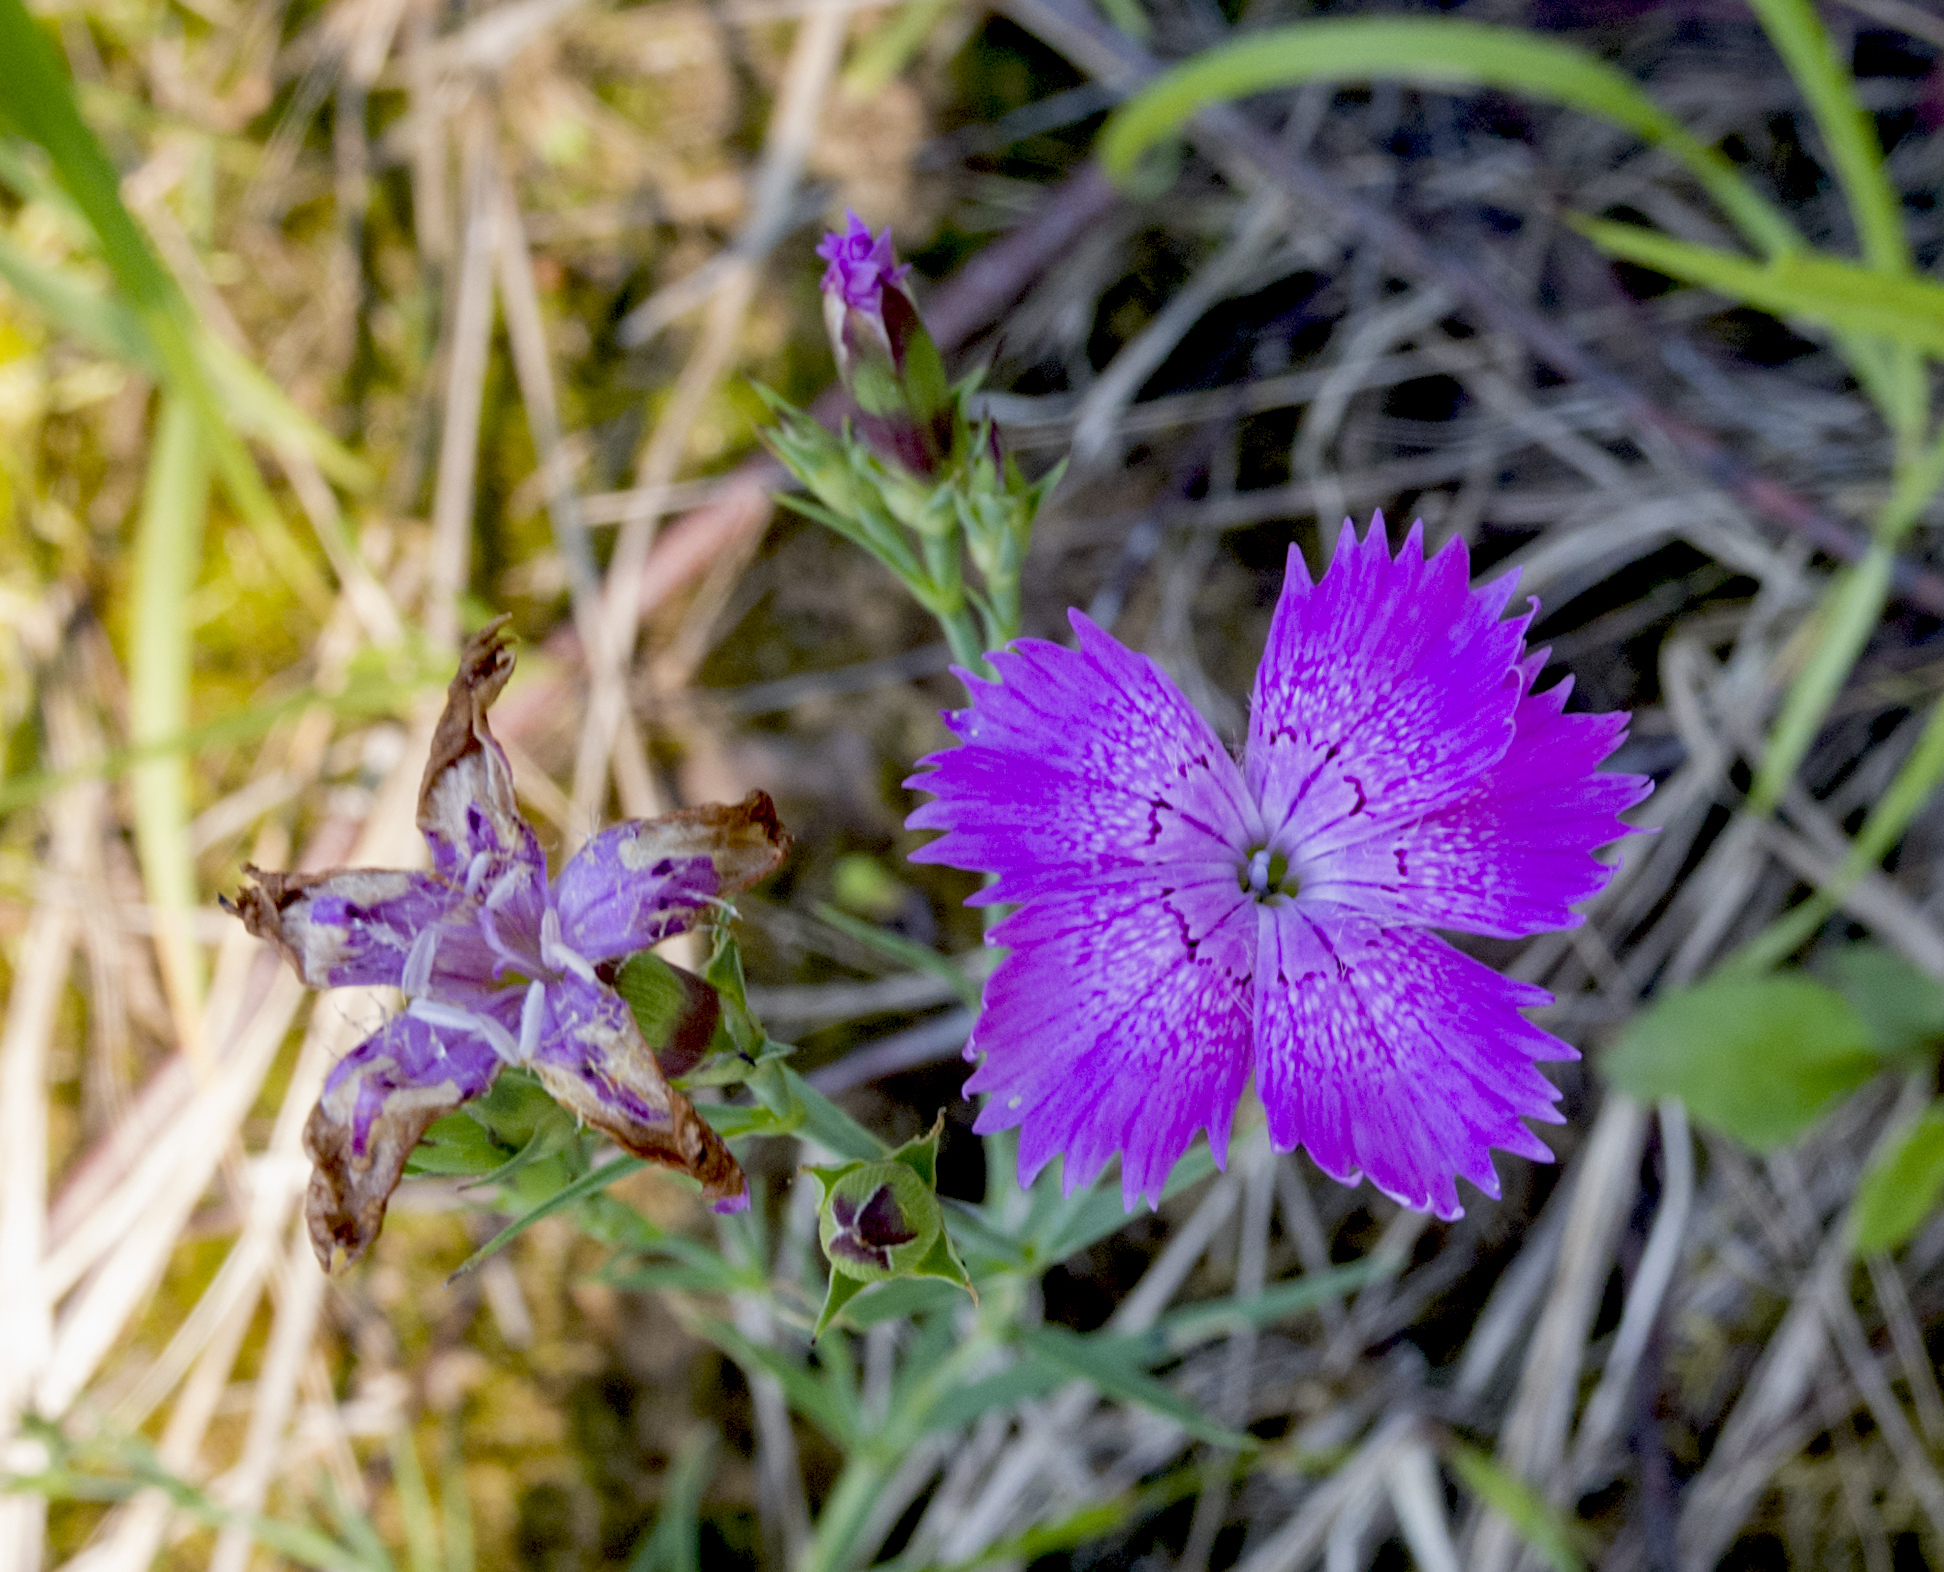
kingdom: Plantae
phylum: Tracheophyta
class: Magnoliopsida
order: Caryophyllales
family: Caryophyllaceae
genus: Dianthus
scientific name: Dianthus chinensis
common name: Rainbow pink
